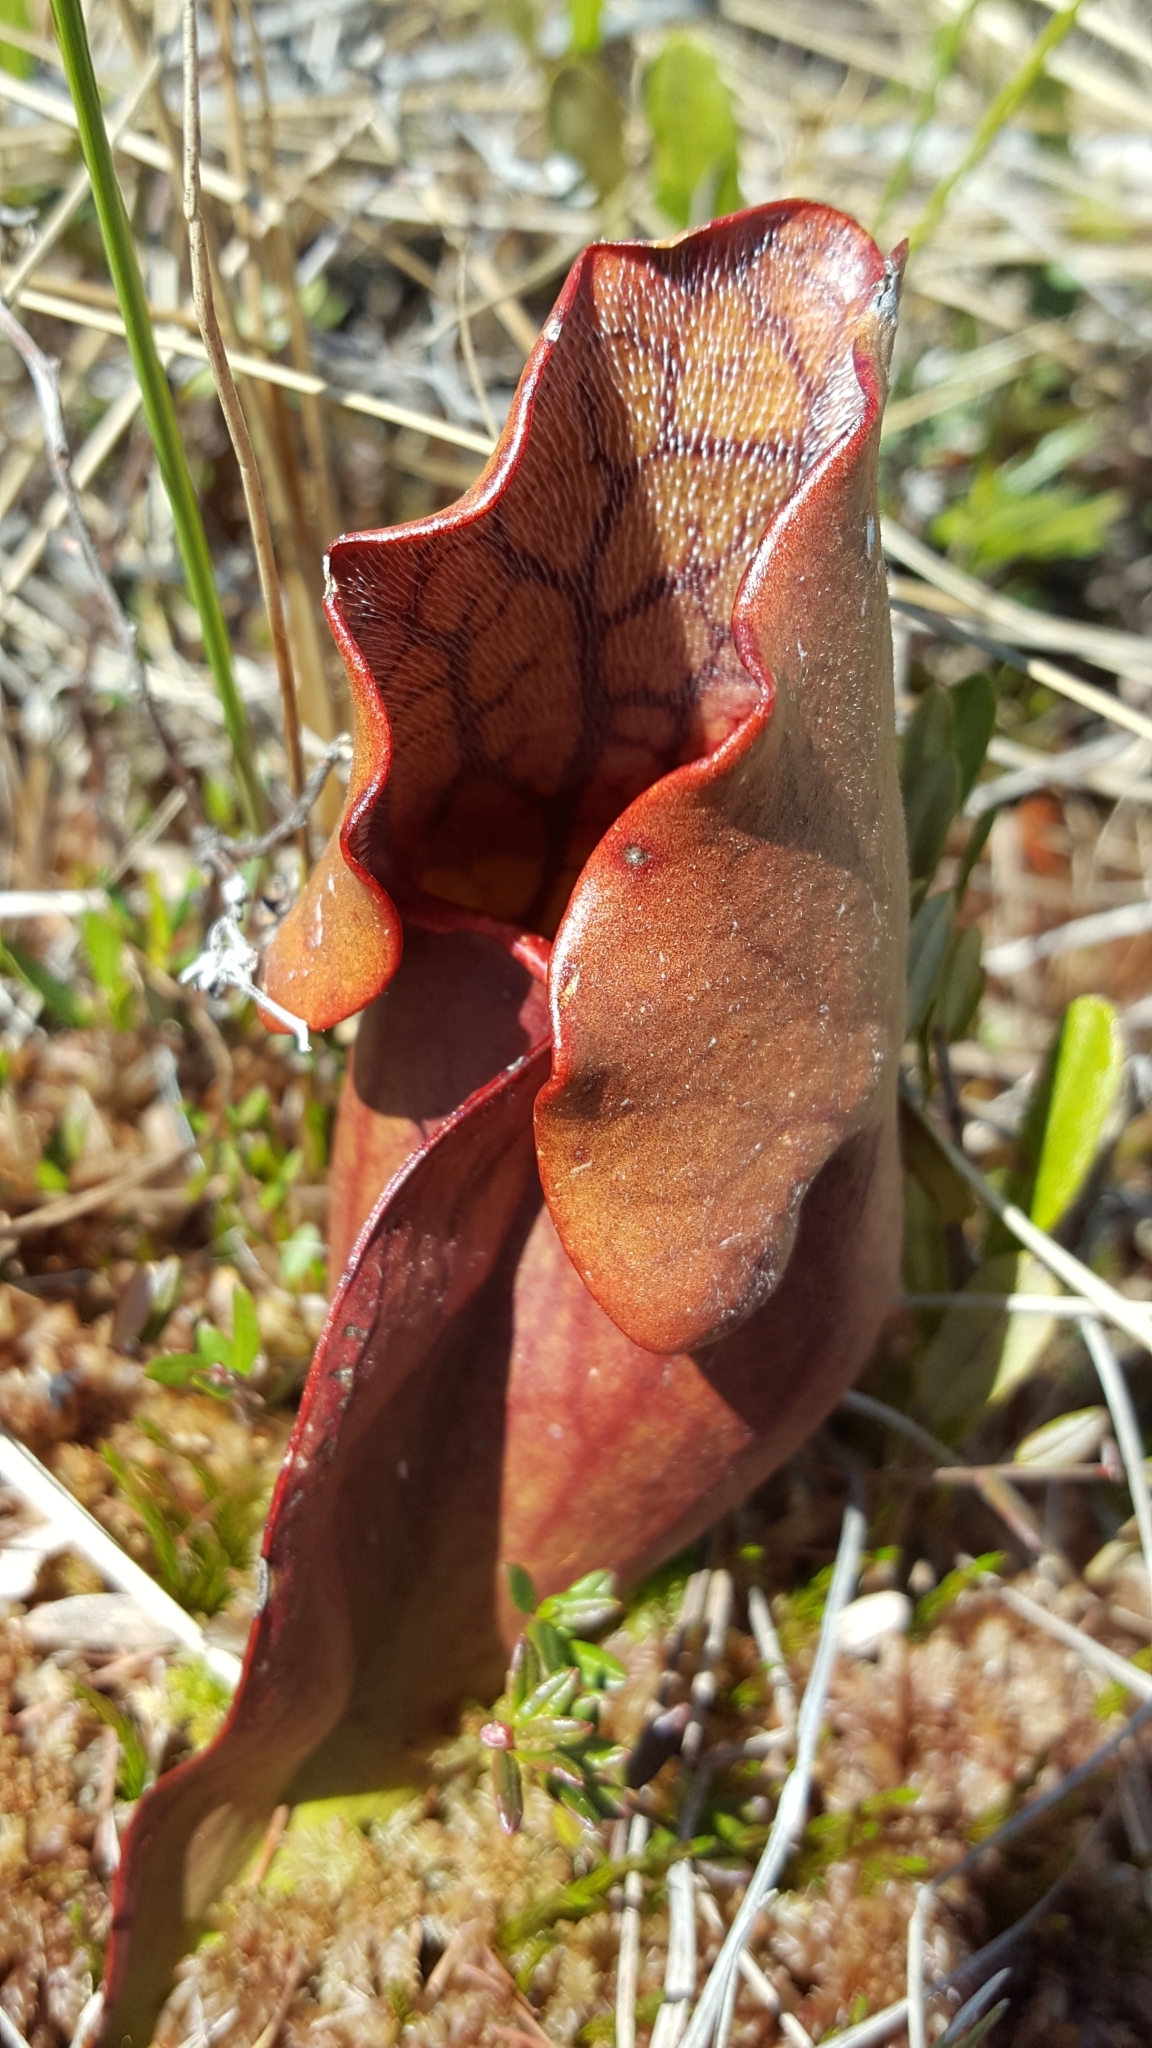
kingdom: Plantae
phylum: Tracheophyta
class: Magnoliopsida
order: Ericales
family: Sarraceniaceae
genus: Sarracenia
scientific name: Sarracenia purpurea
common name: Pitcherplant
